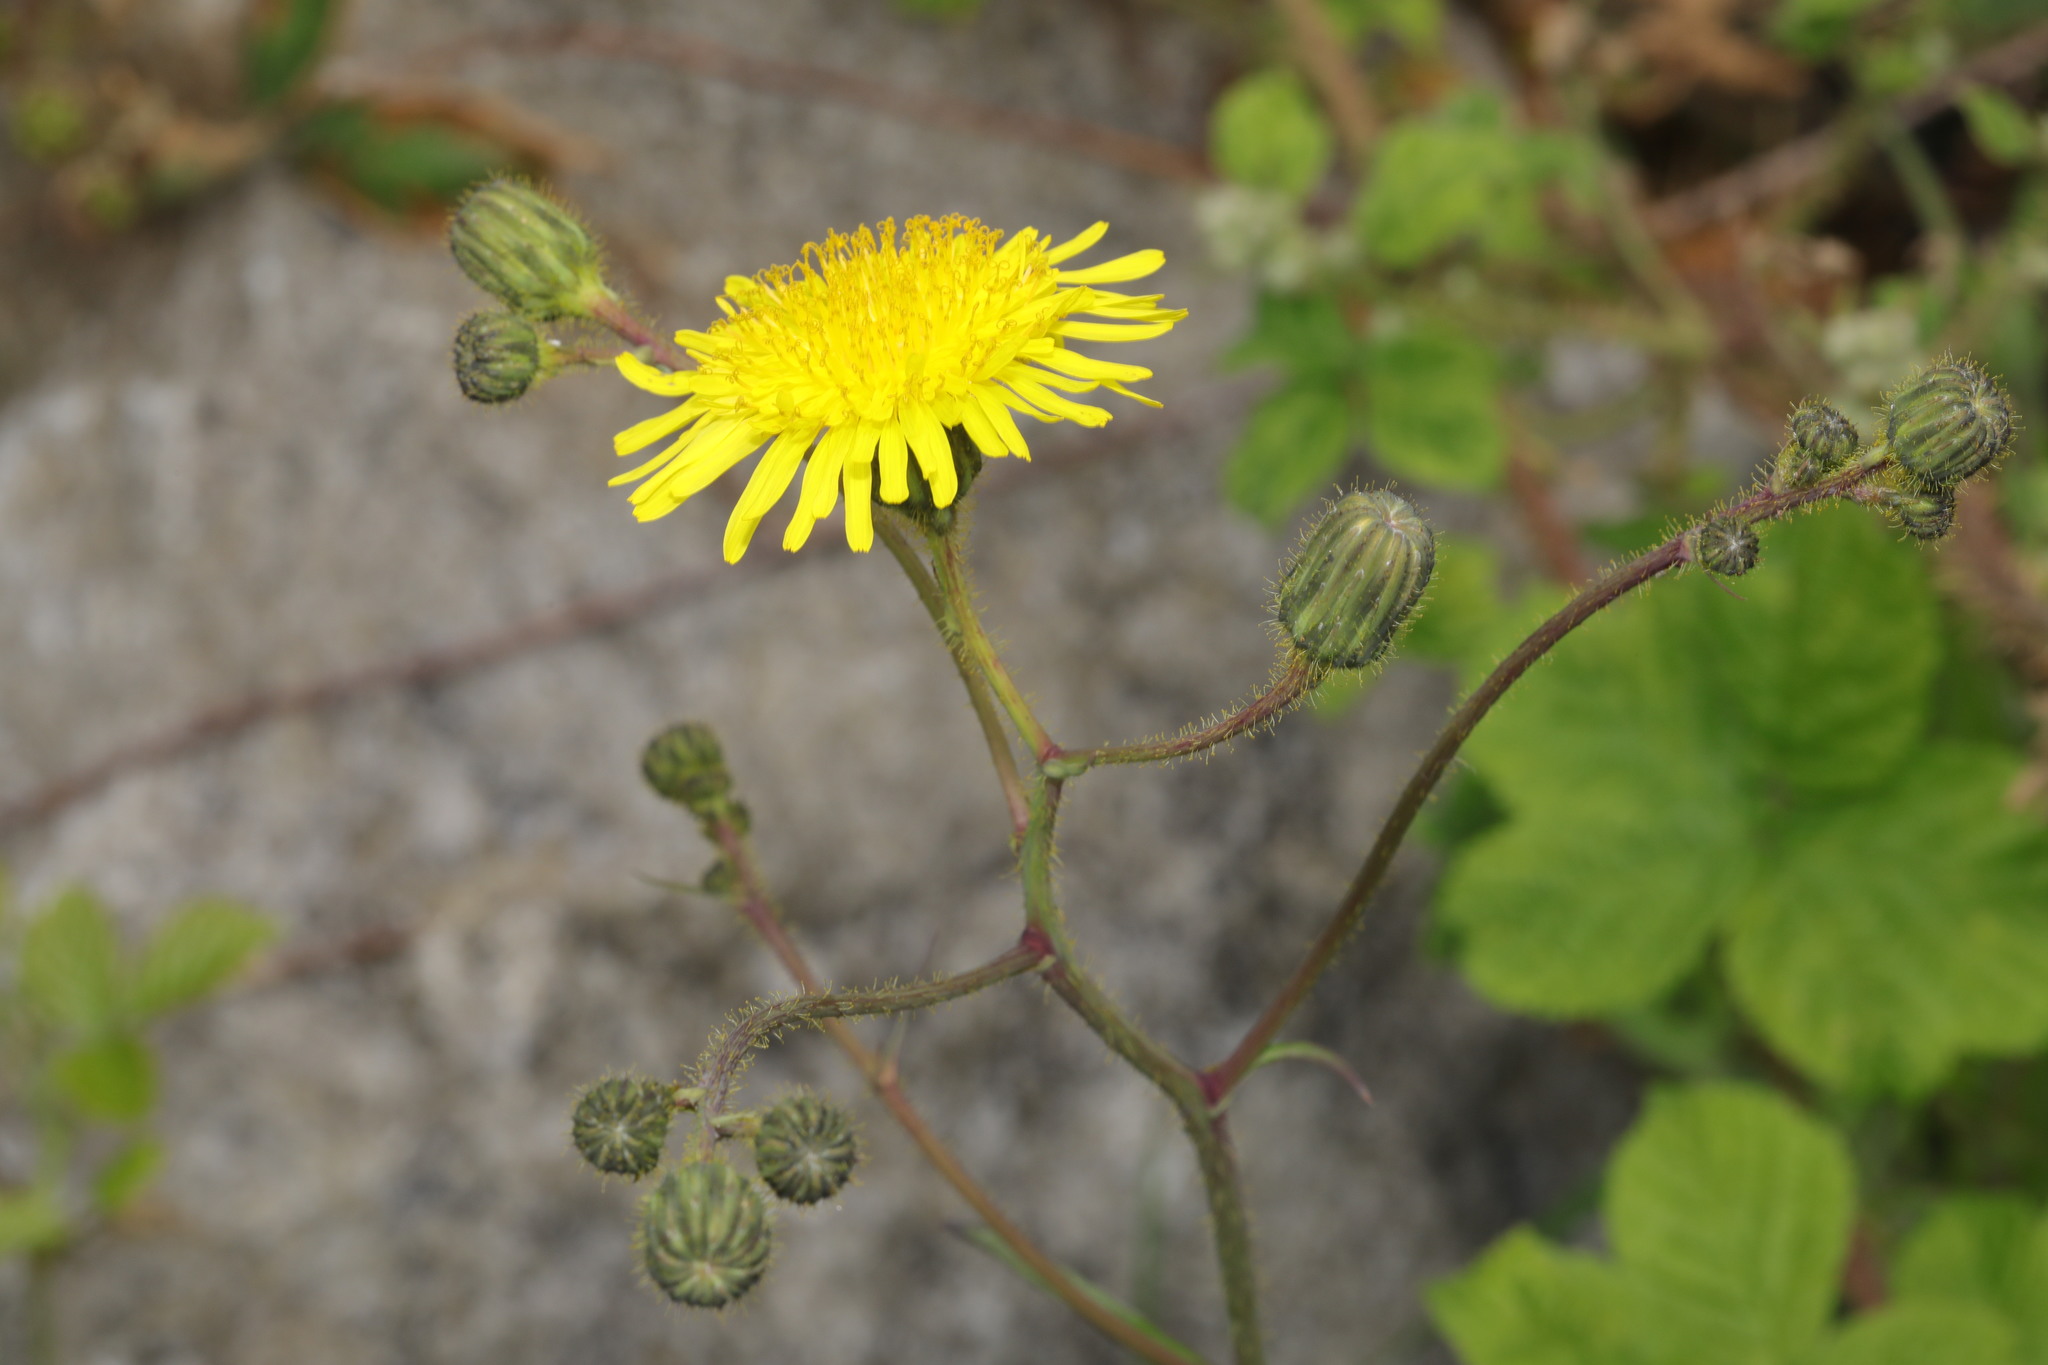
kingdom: Plantae
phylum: Tracheophyta
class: Magnoliopsida
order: Asterales
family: Asteraceae
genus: Sonchus
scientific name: Sonchus arvensis
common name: Perennial sow-thistle
